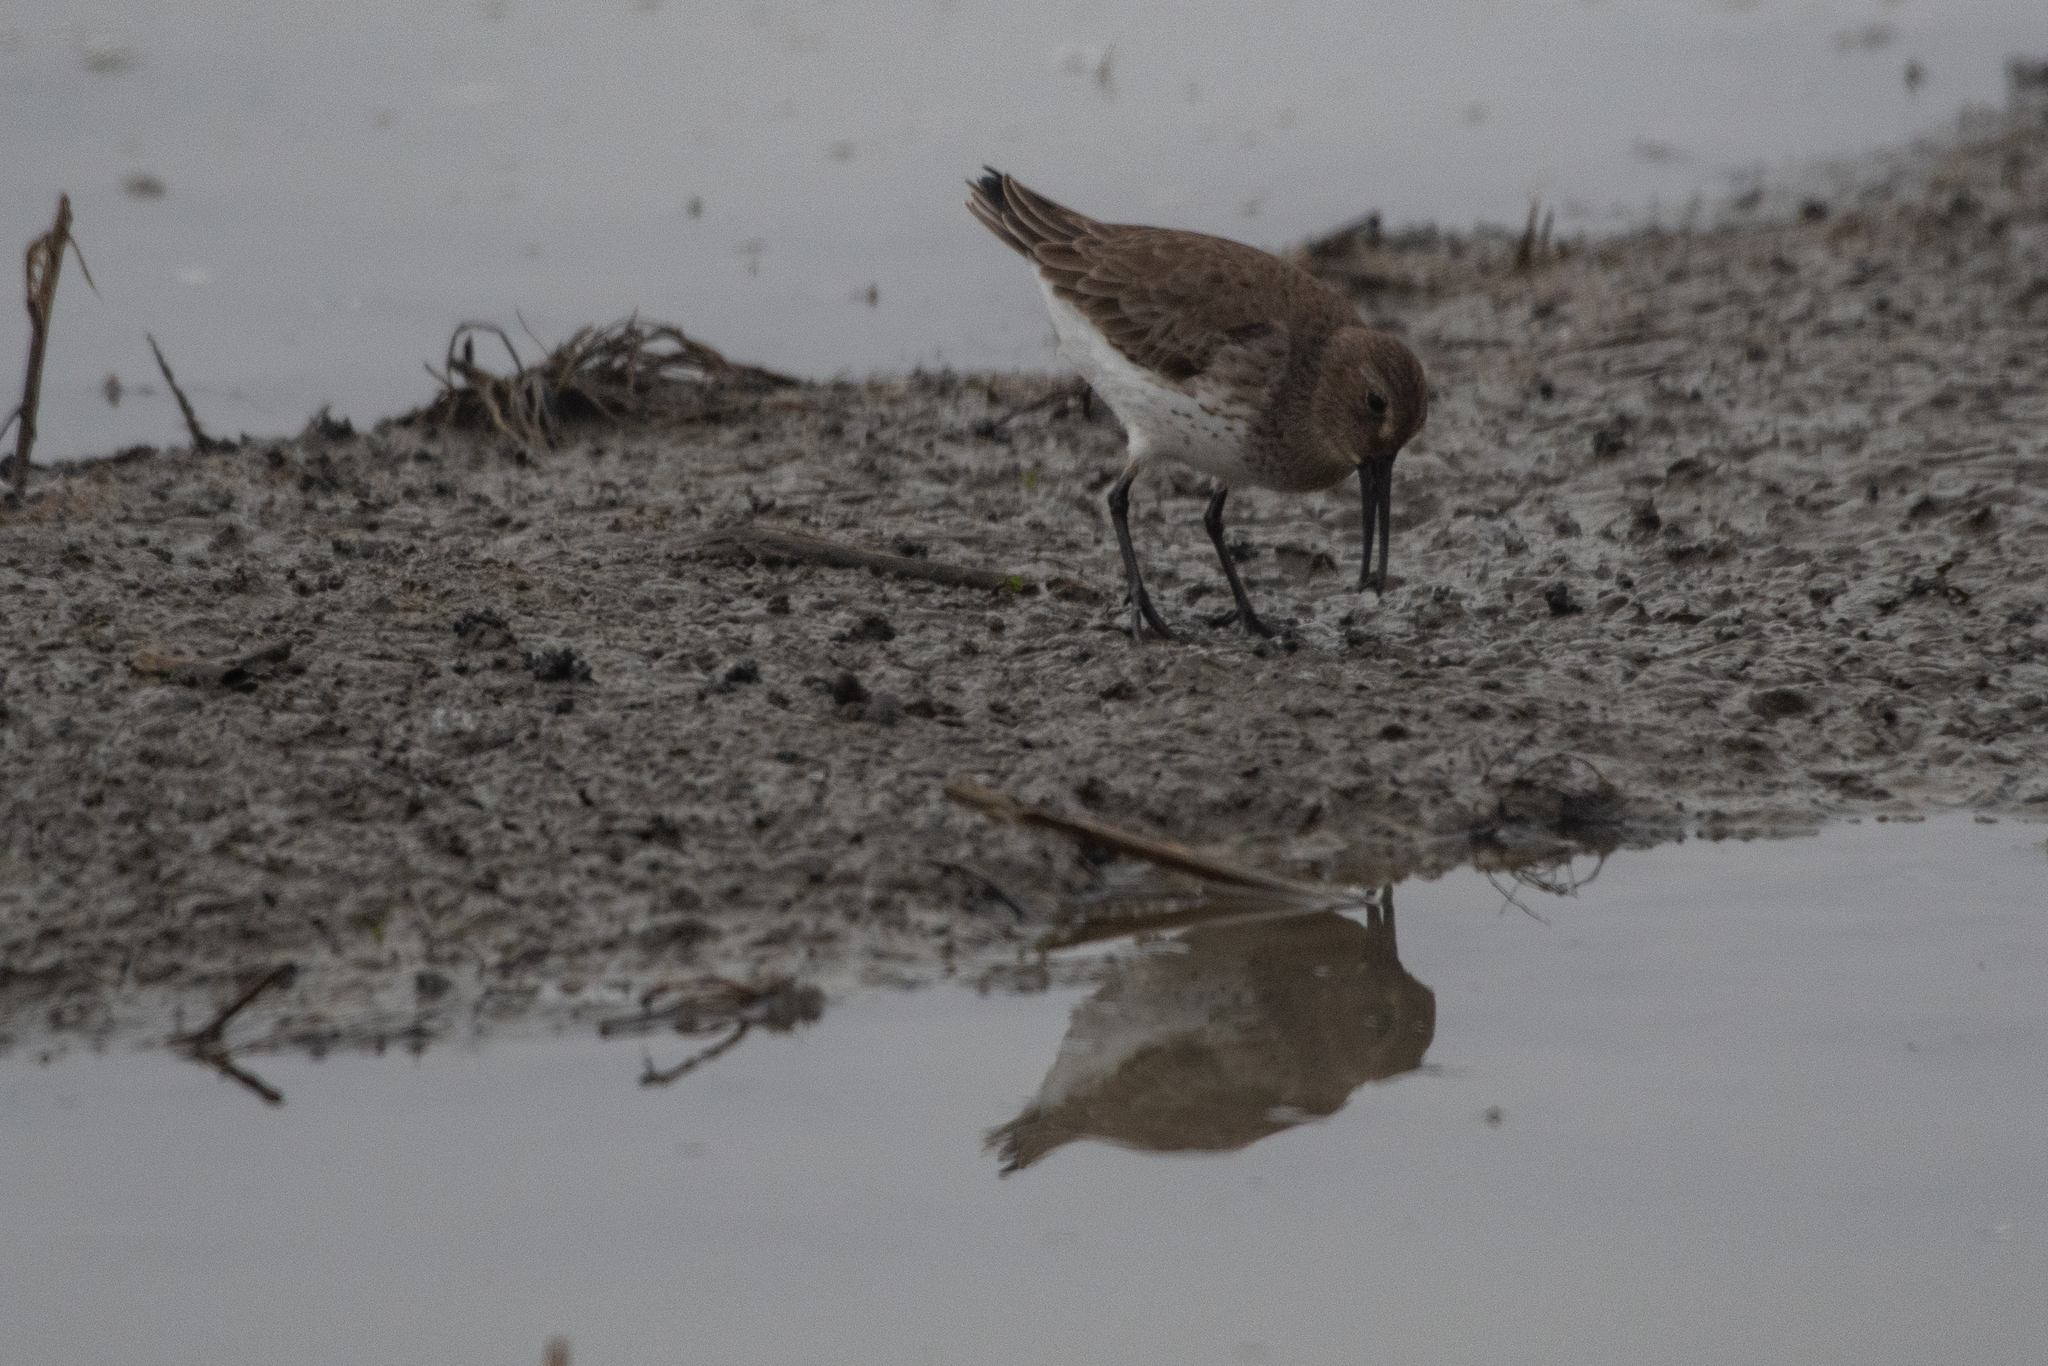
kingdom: Animalia
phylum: Chordata
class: Aves
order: Charadriiformes
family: Scolopacidae
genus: Calidris
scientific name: Calidris alpina
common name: Dunlin
